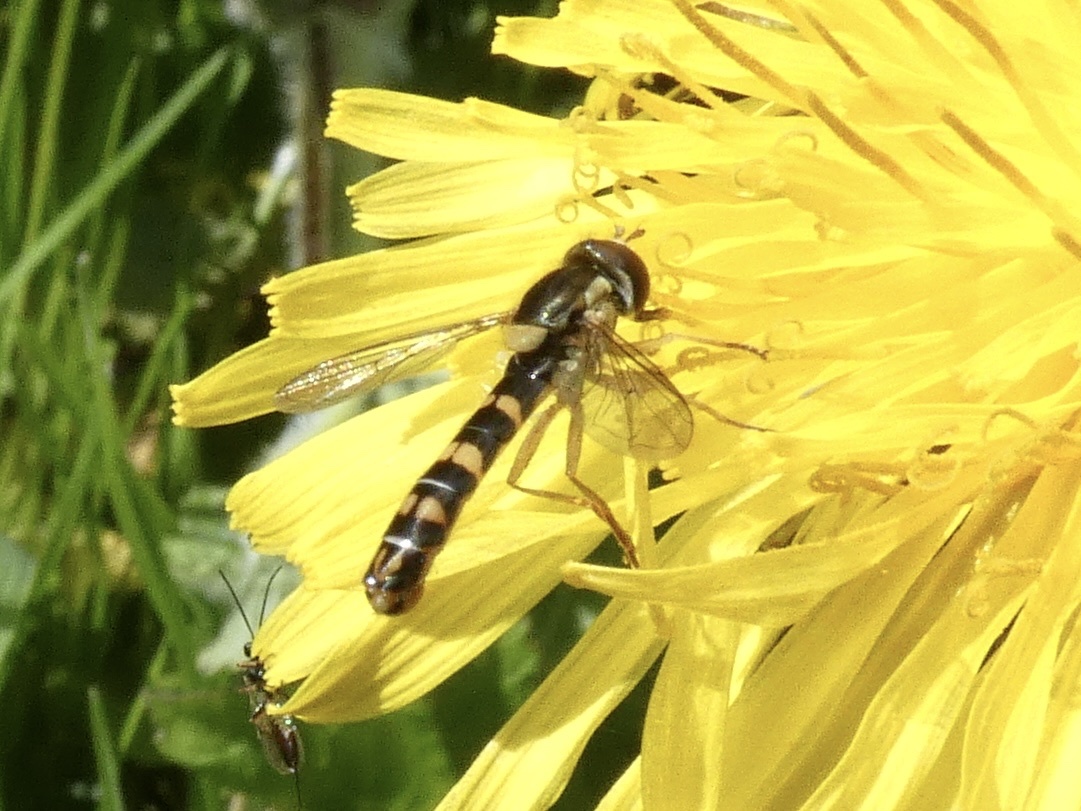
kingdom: Animalia
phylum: Arthropoda
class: Insecta
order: Diptera
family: Syrphidae
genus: Sphaerophoria
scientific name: Sphaerophoria scripta
